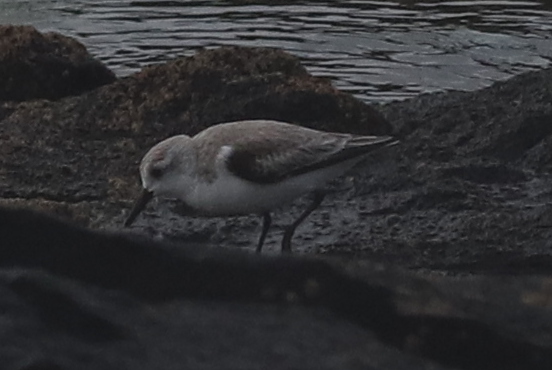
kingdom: Animalia
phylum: Chordata
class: Aves
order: Charadriiformes
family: Scolopacidae
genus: Calidris
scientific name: Calidris alba
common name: Sanderling
